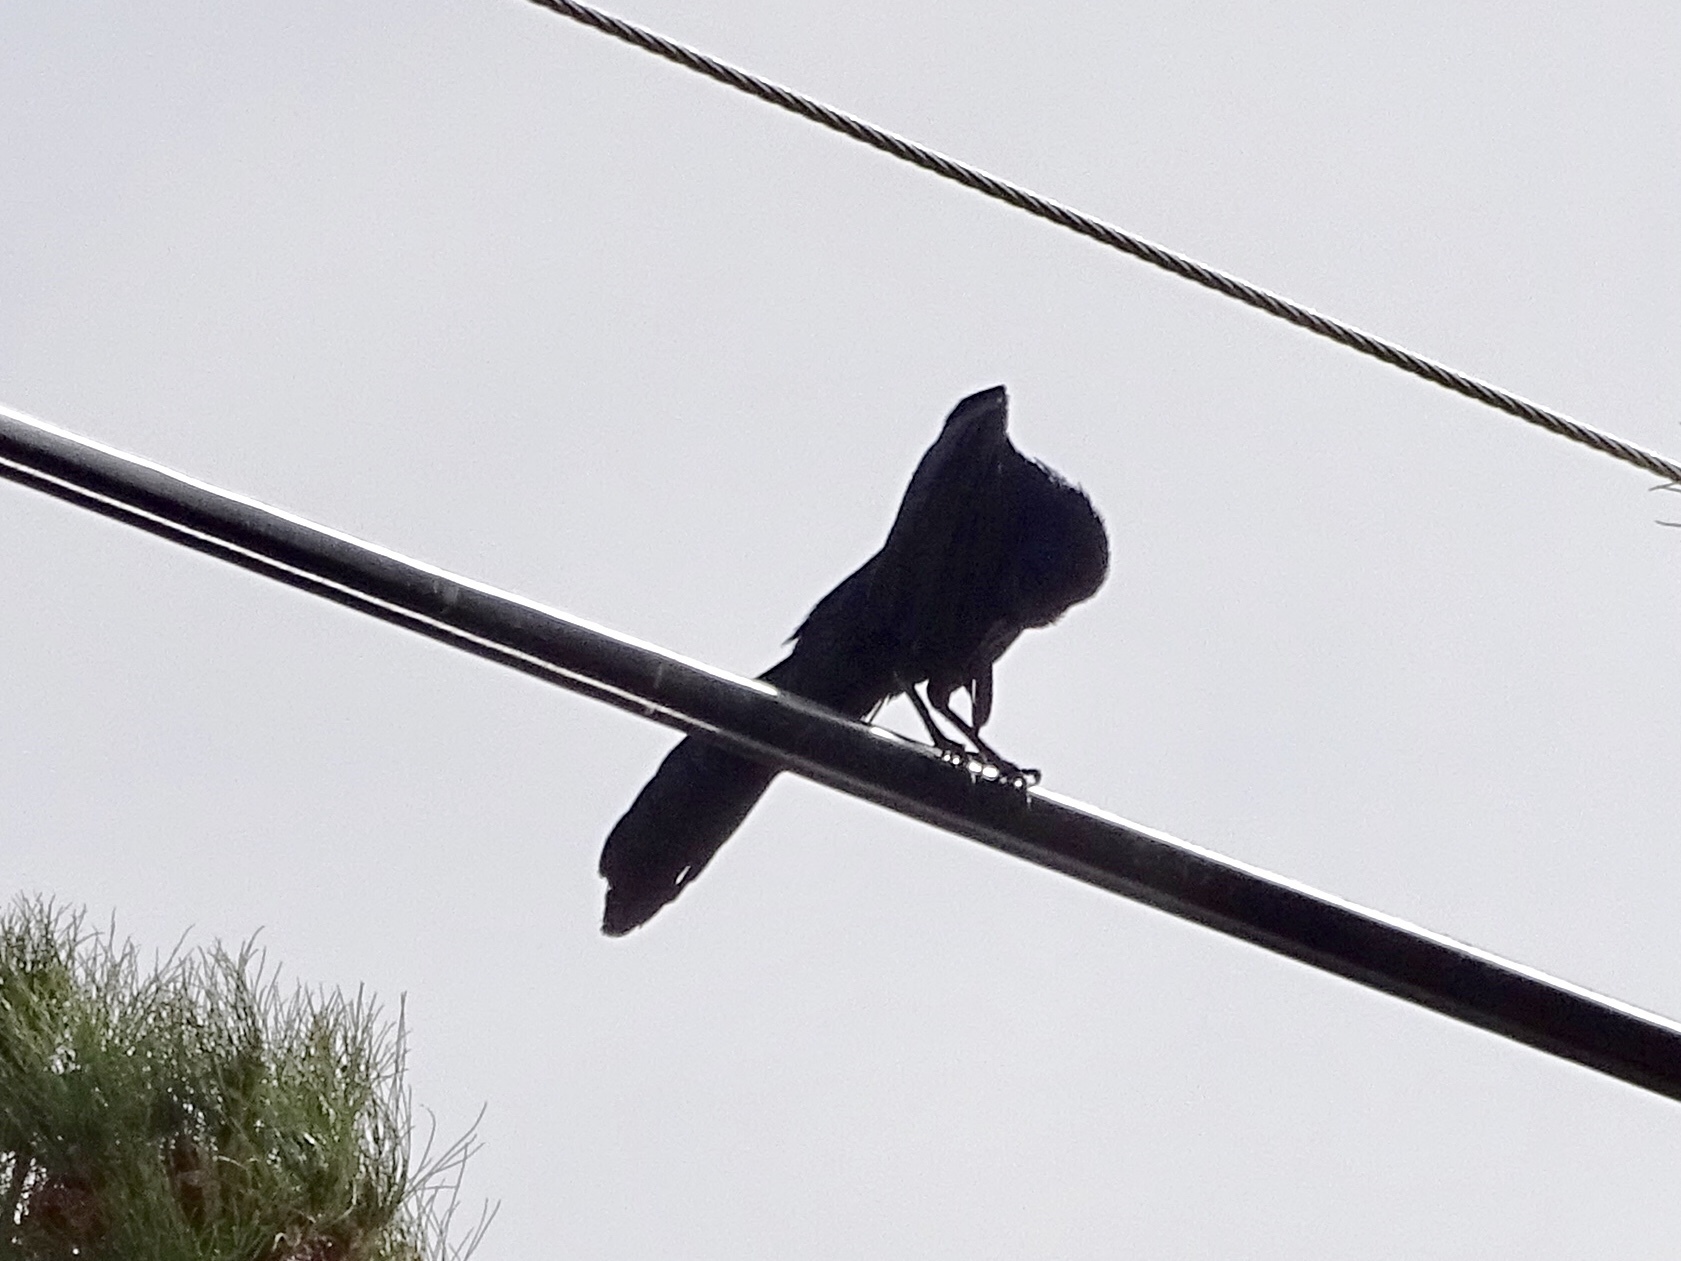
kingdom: Animalia
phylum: Chordata
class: Aves
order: Passeriformes
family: Icteridae
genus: Quiscalus
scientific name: Quiscalus mexicanus
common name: Great-tailed grackle
